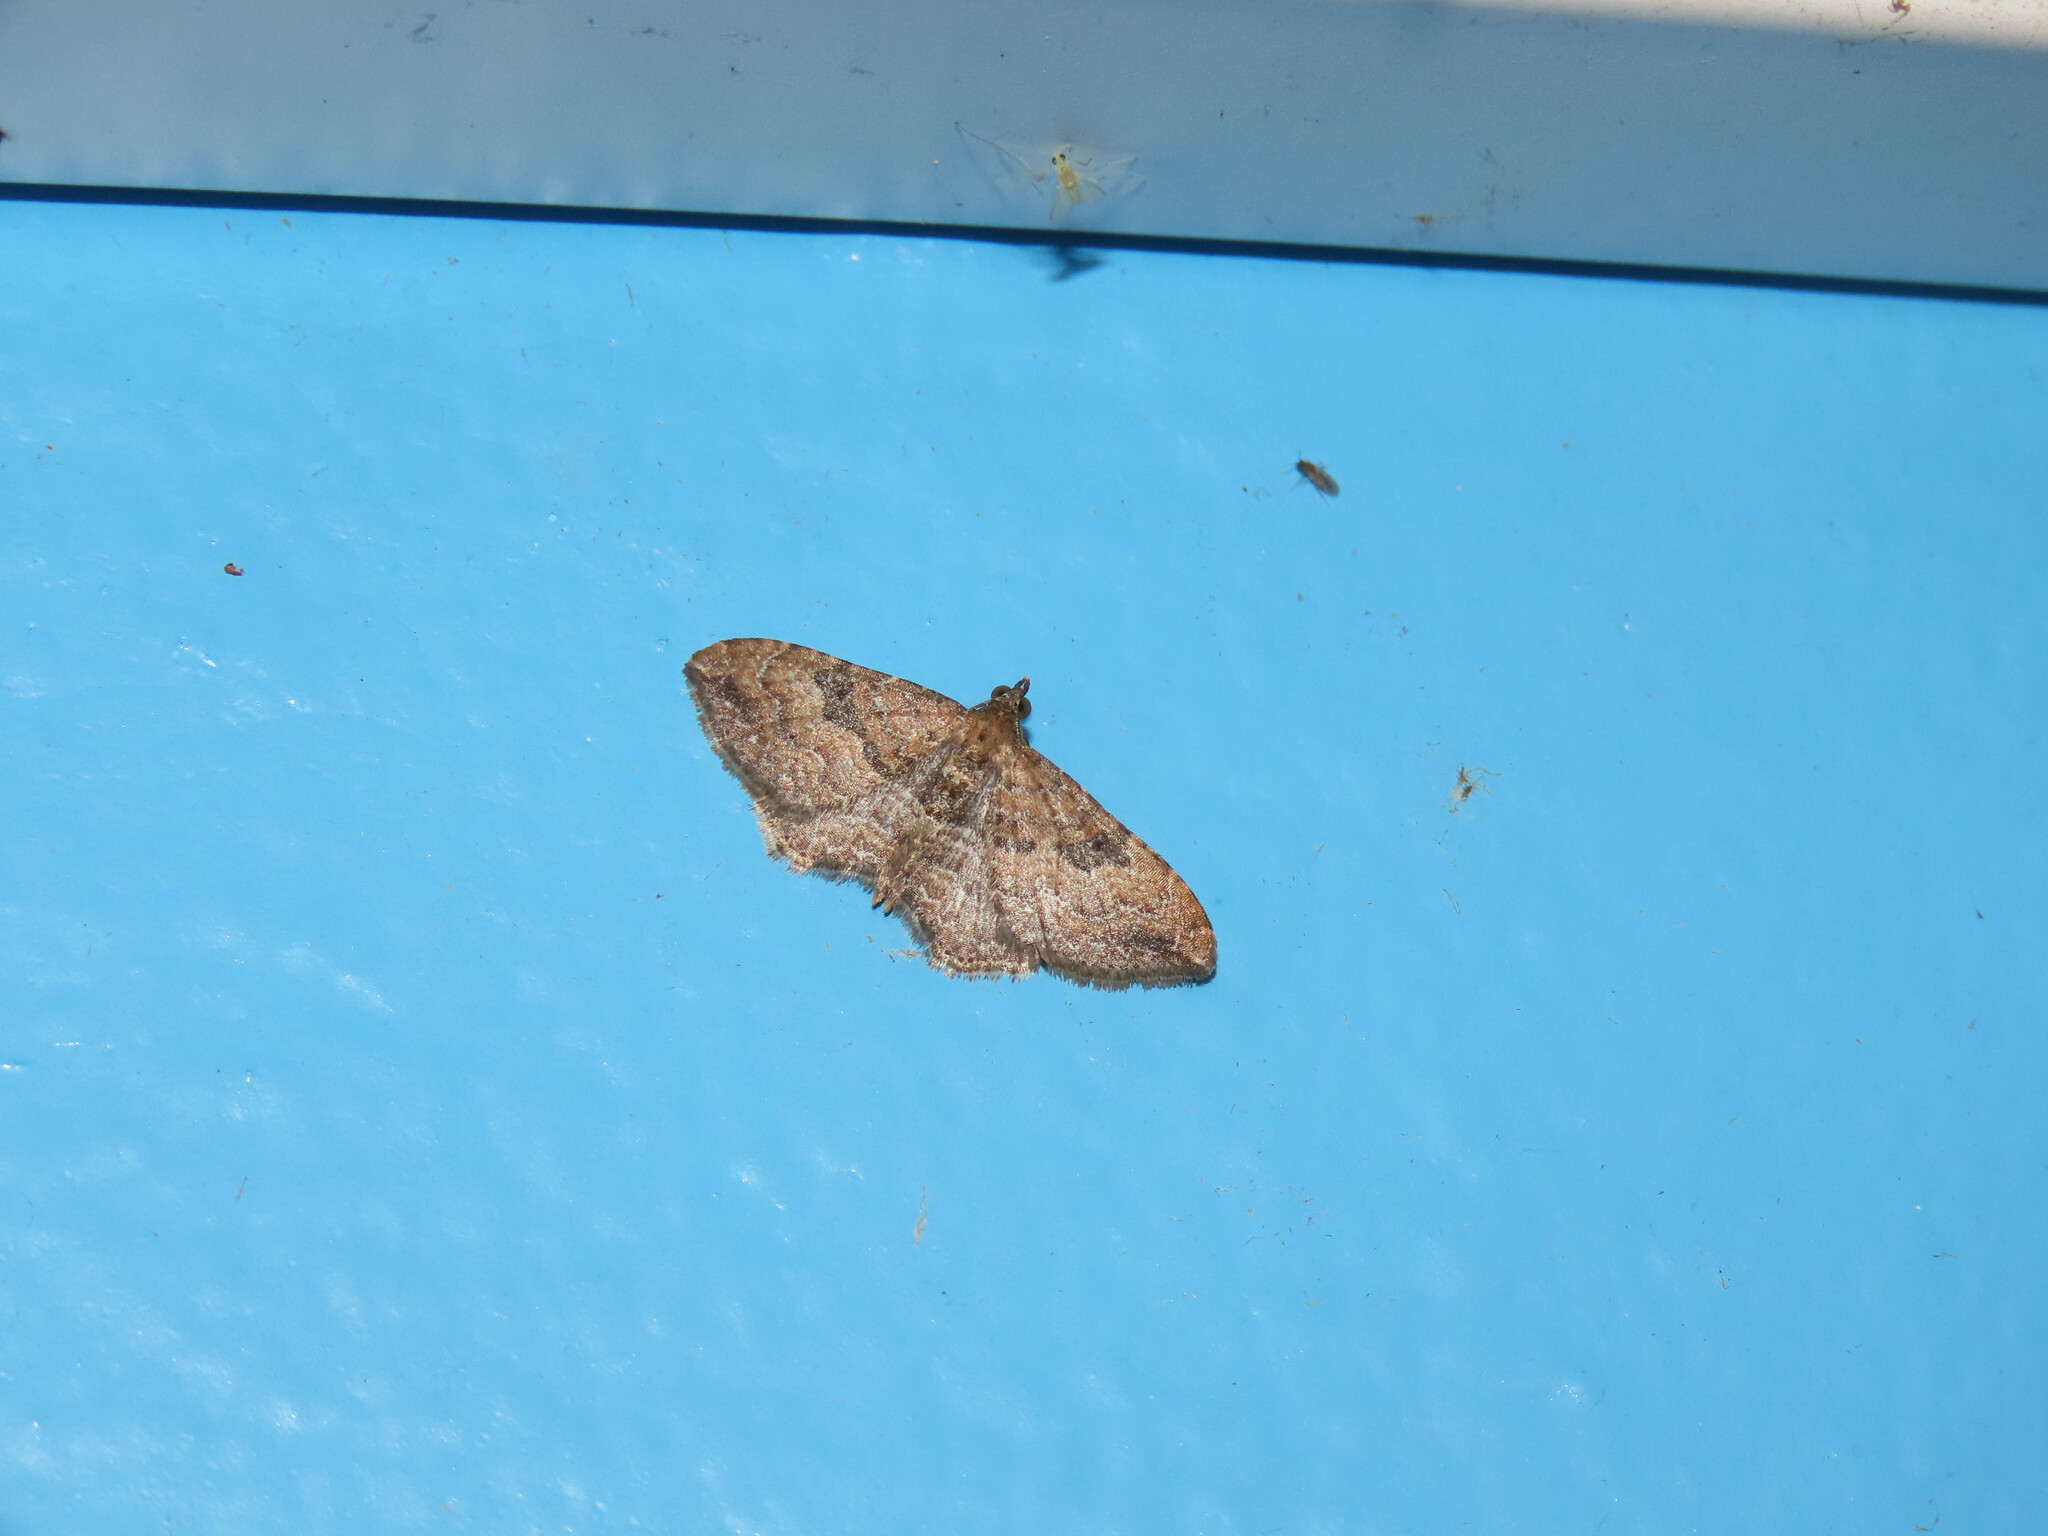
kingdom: Animalia
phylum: Arthropoda
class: Insecta
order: Lepidoptera
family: Geometridae
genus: Orthonama
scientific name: Orthonama obstipata
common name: The gem
